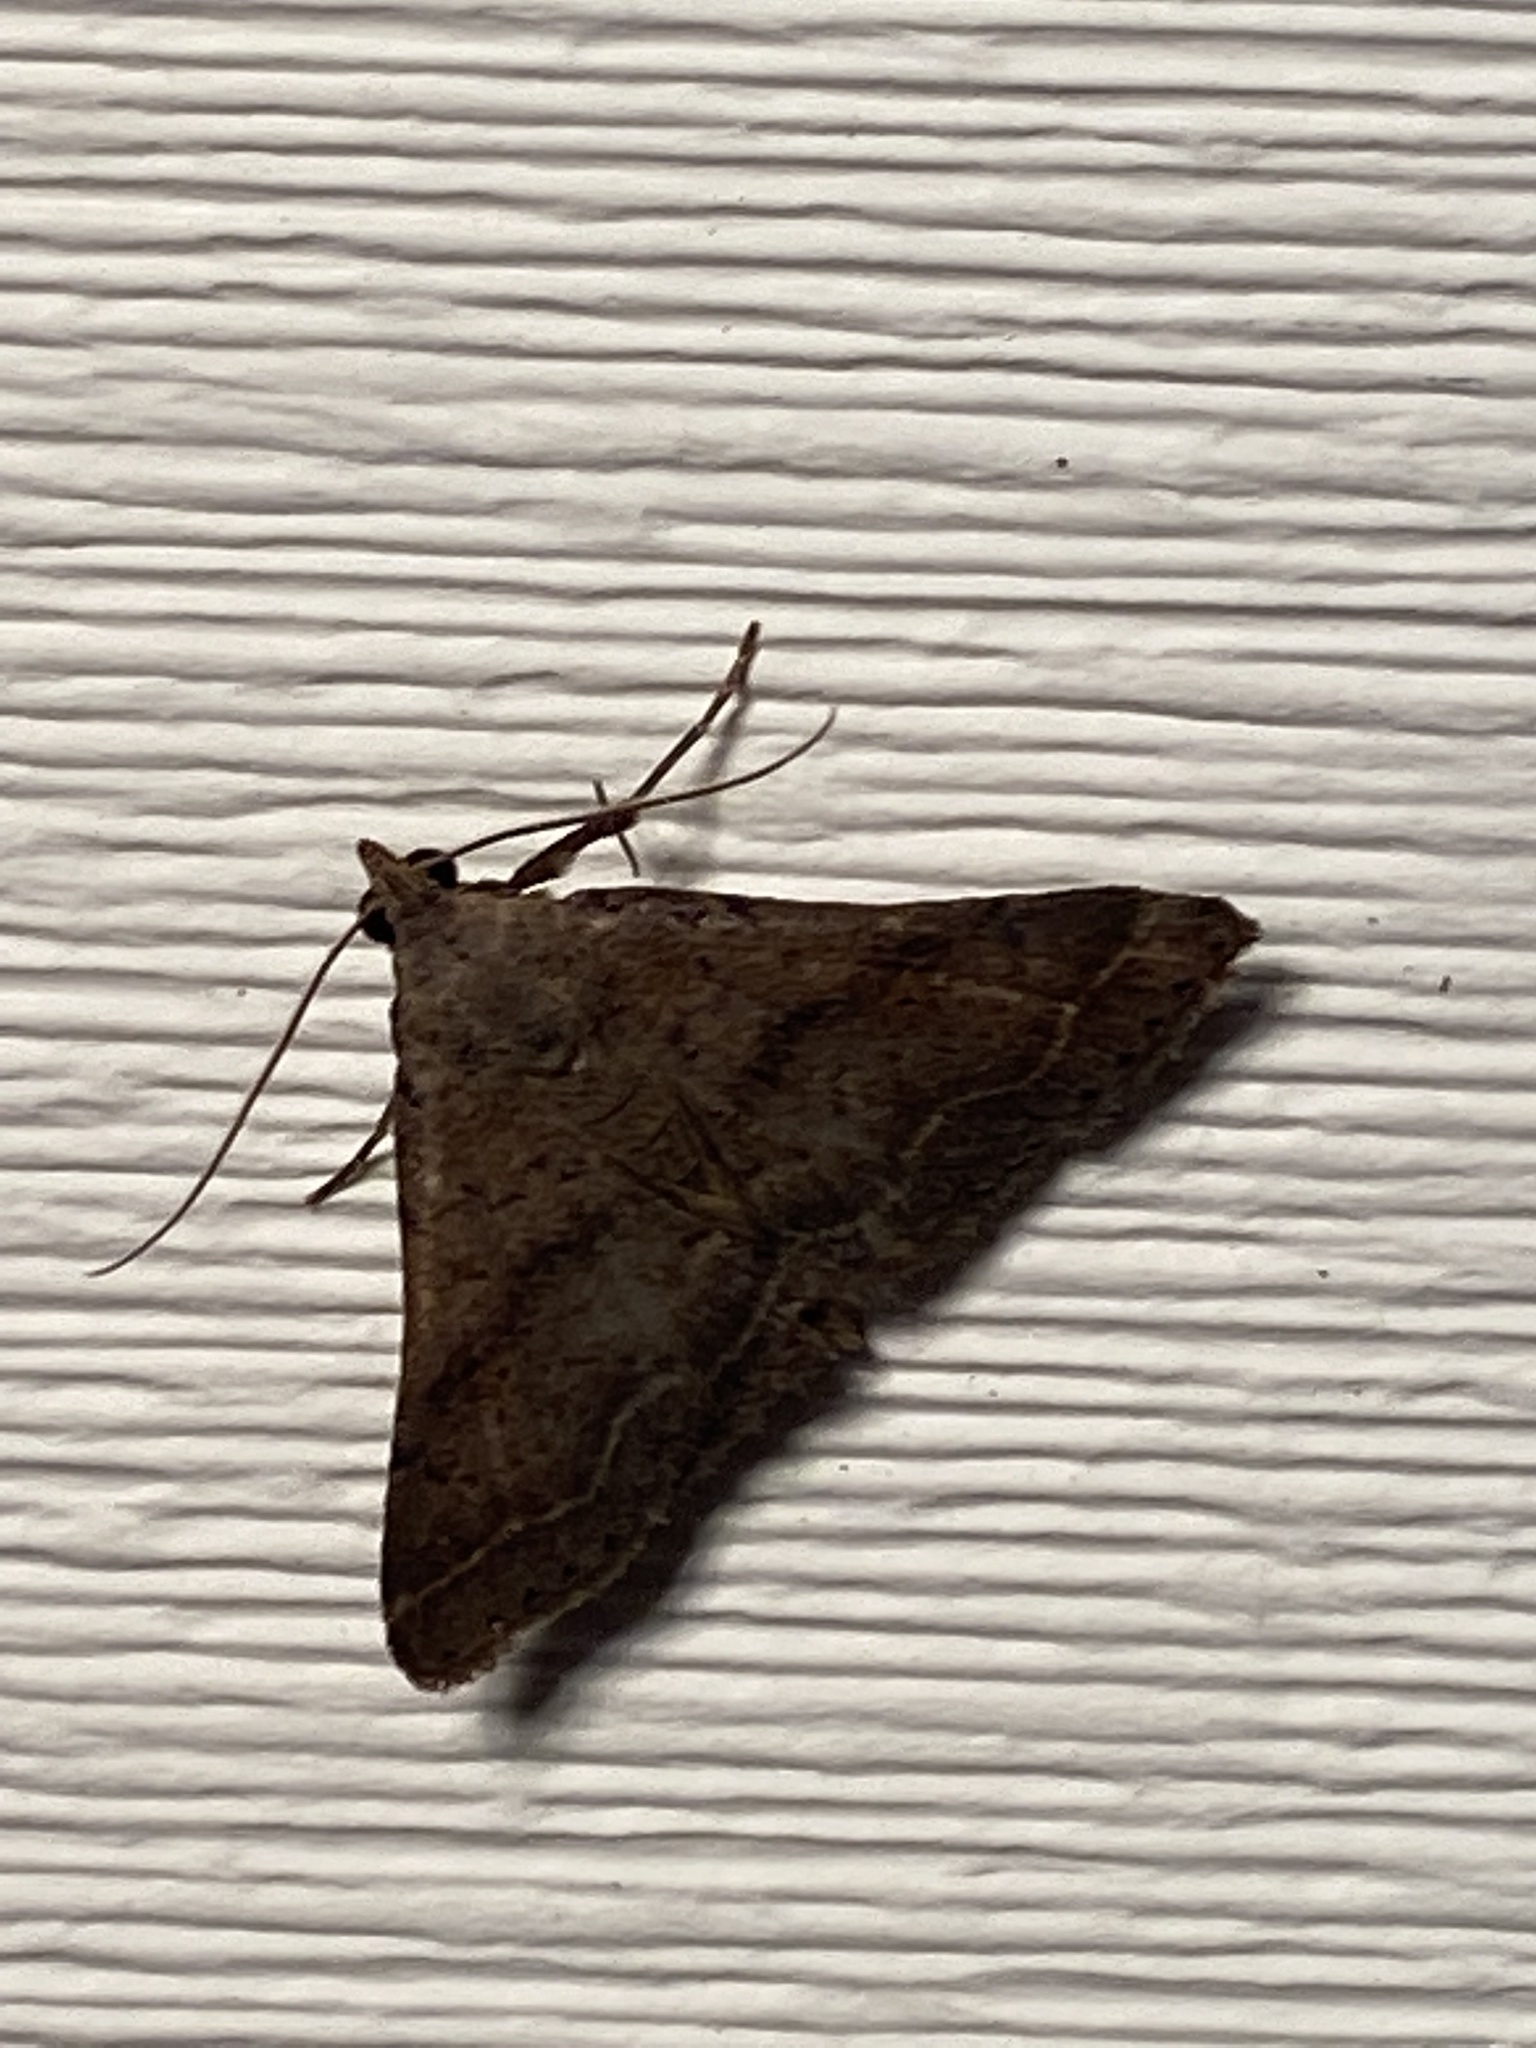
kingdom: Animalia
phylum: Arthropoda
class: Insecta
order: Lepidoptera
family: Erebidae
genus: Bleptina
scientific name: Bleptina caradrinalis
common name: Bent-winged owlet
